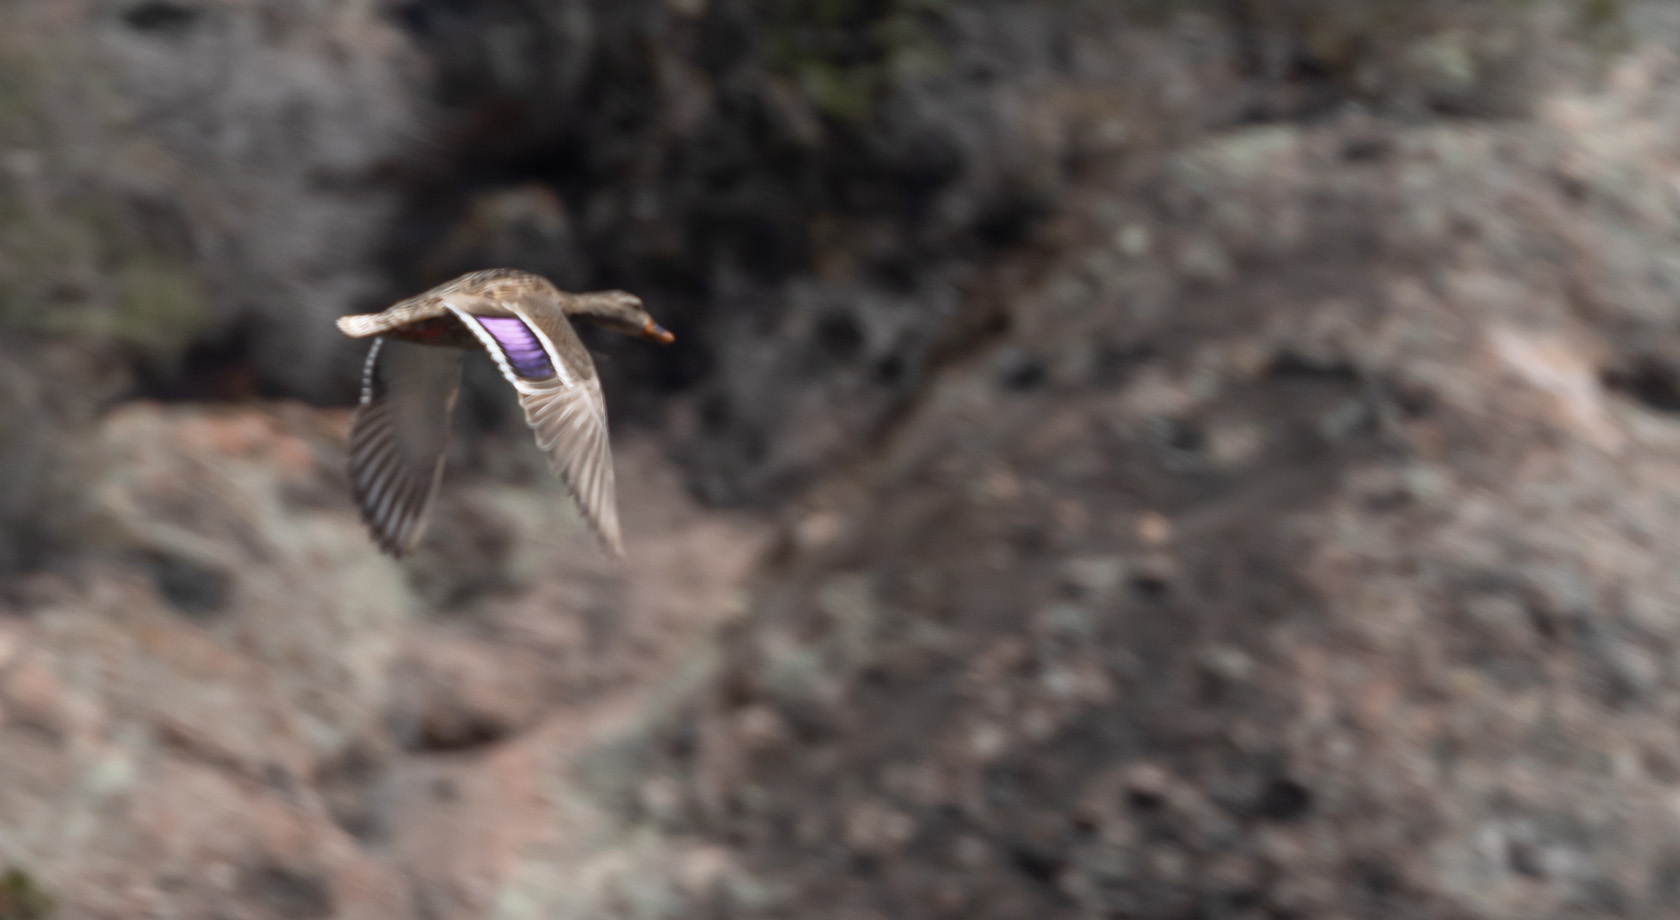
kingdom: Animalia
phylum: Chordata
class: Aves
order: Anseriformes
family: Anatidae
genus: Anas
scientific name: Anas platyrhynchos
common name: Mallard
